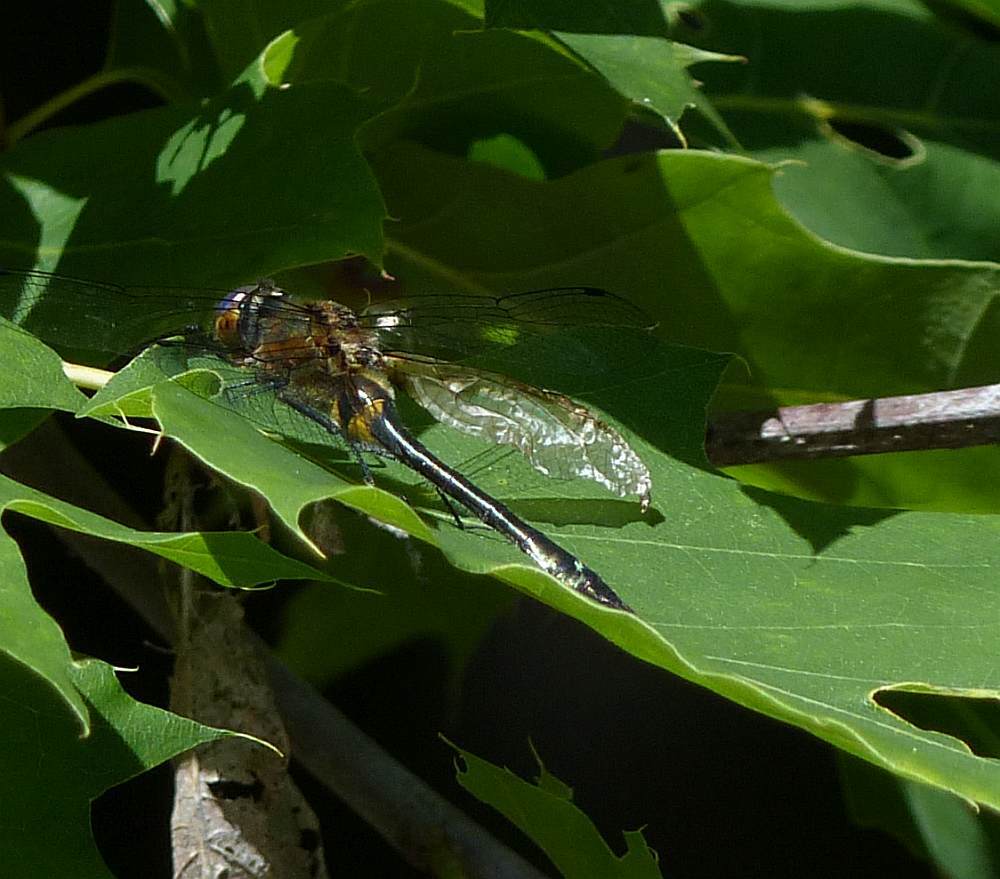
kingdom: Animalia
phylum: Arthropoda
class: Insecta
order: Odonata
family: Corduliidae
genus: Dorocordulia
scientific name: Dorocordulia libera
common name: Racket-tailed emerald
